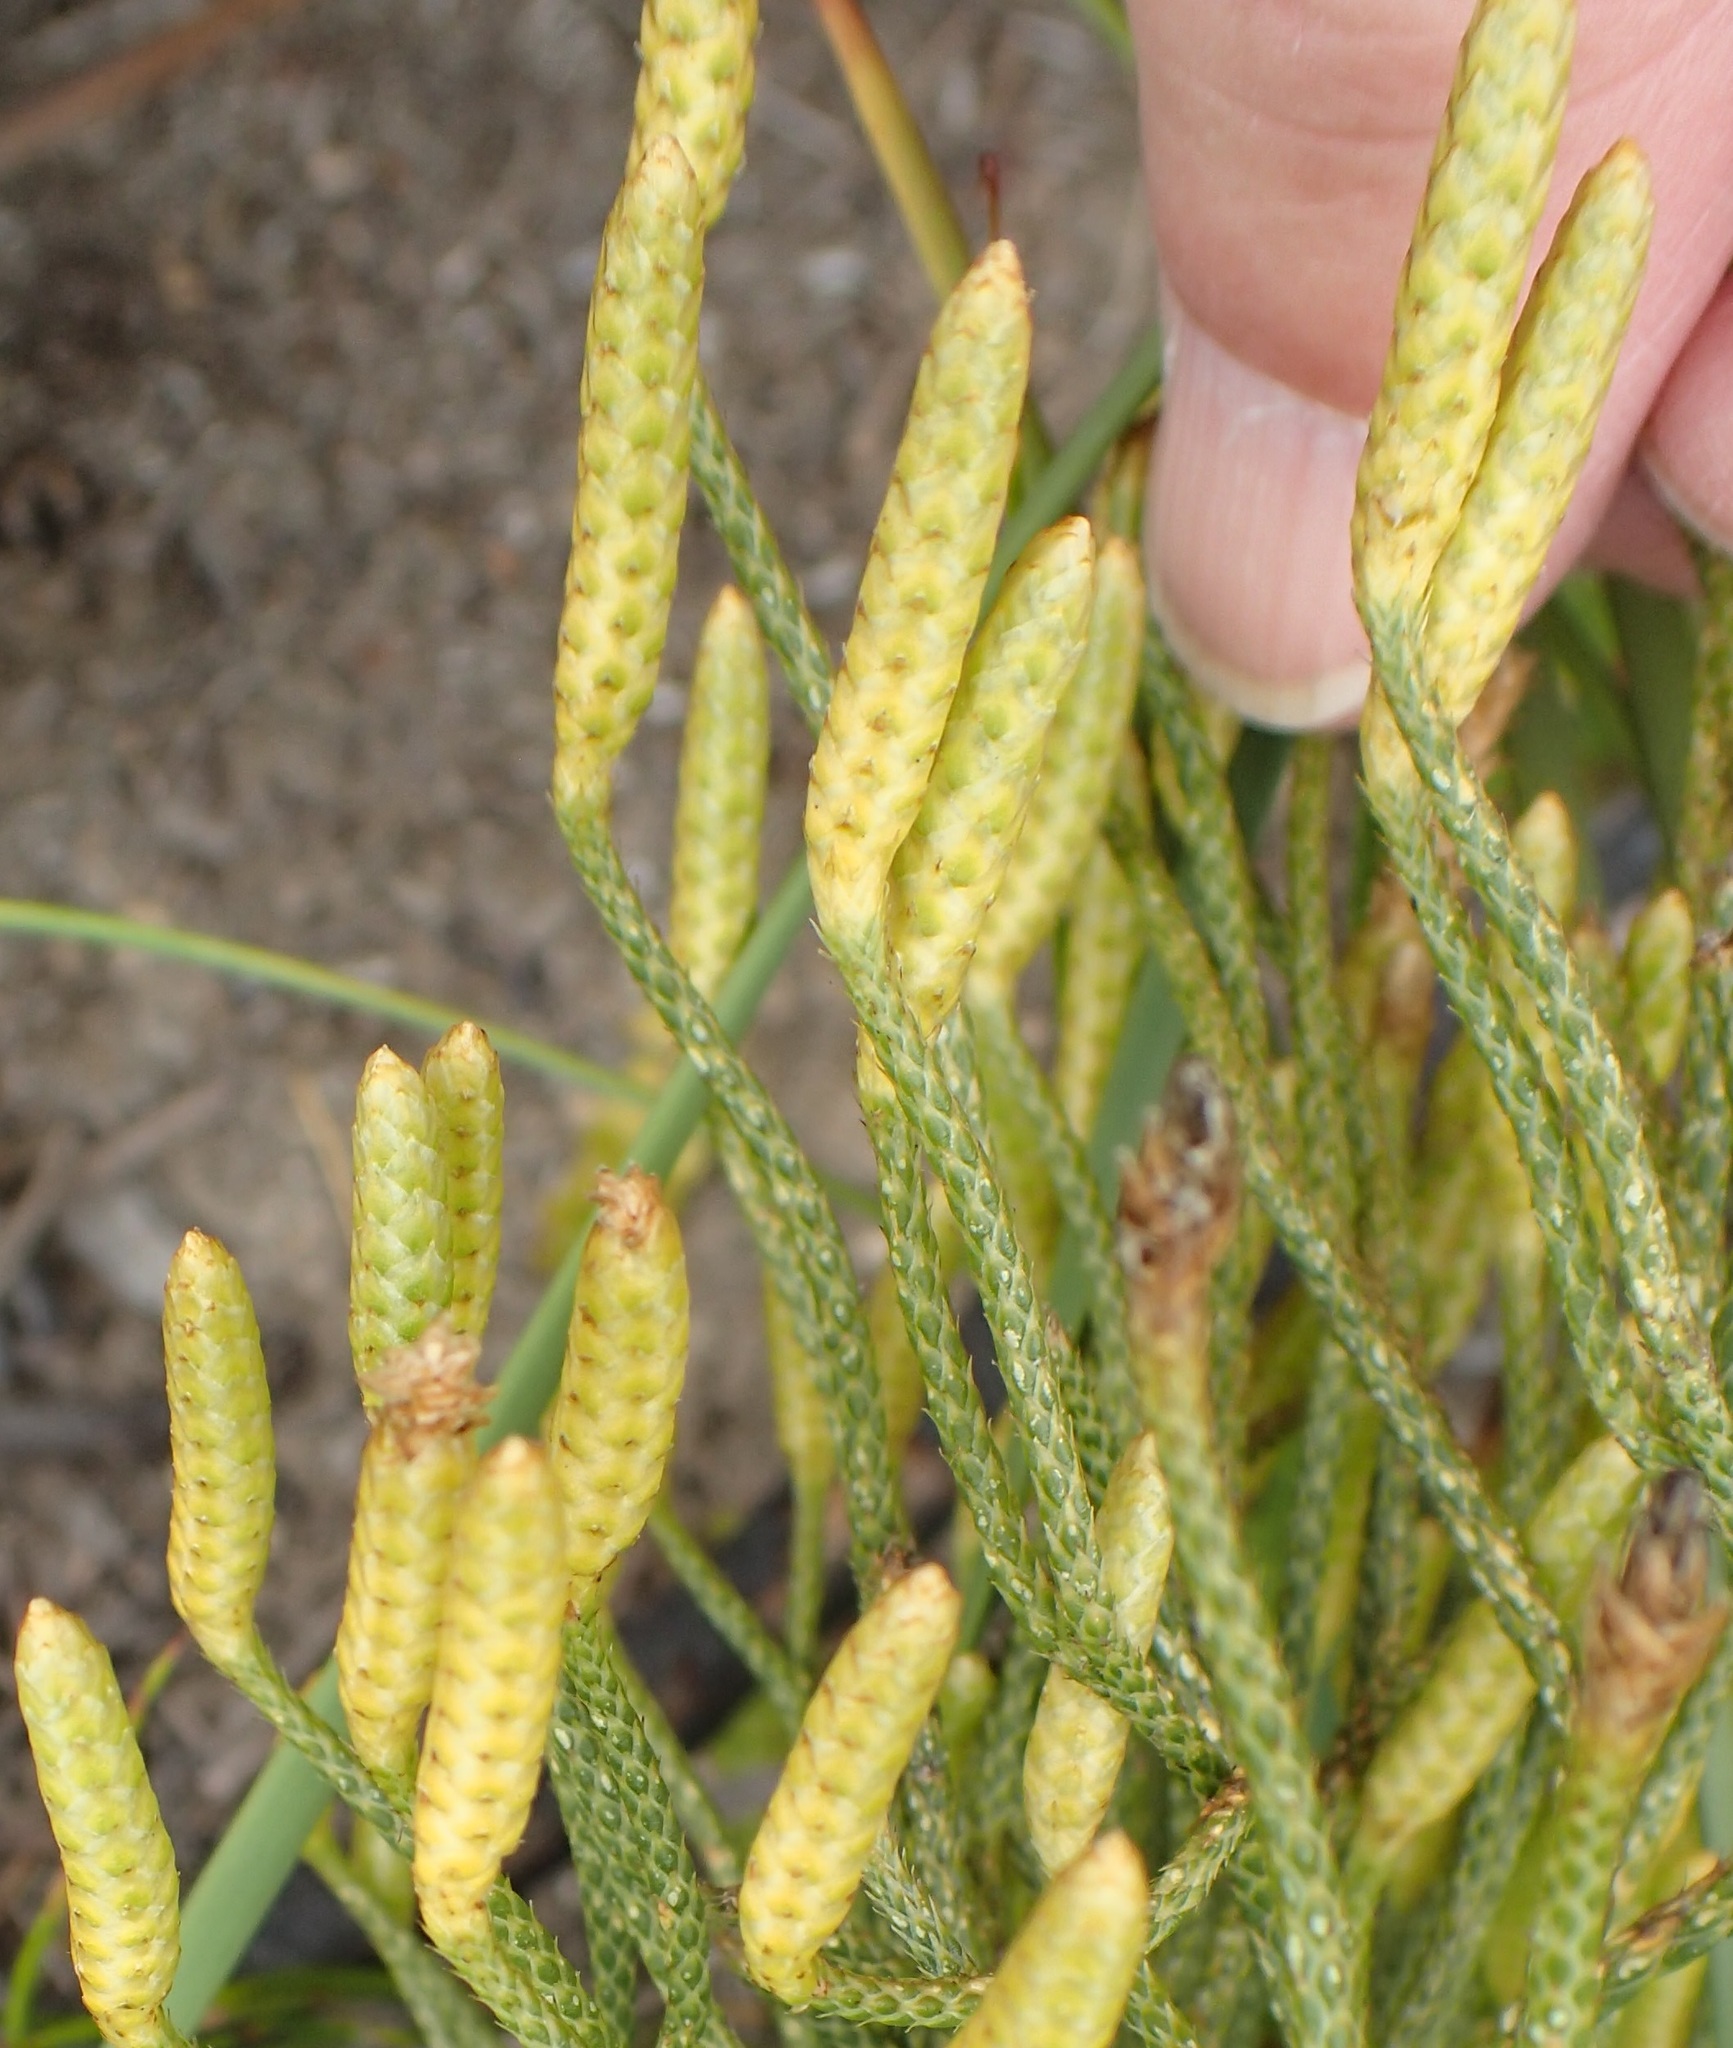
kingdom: Plantae
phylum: Tracheophyta
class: Lycopodiopsida
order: Lycopodiales
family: Lycopodiaceae
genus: Pseudolycopodium
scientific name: Pseudolycopodium densum
